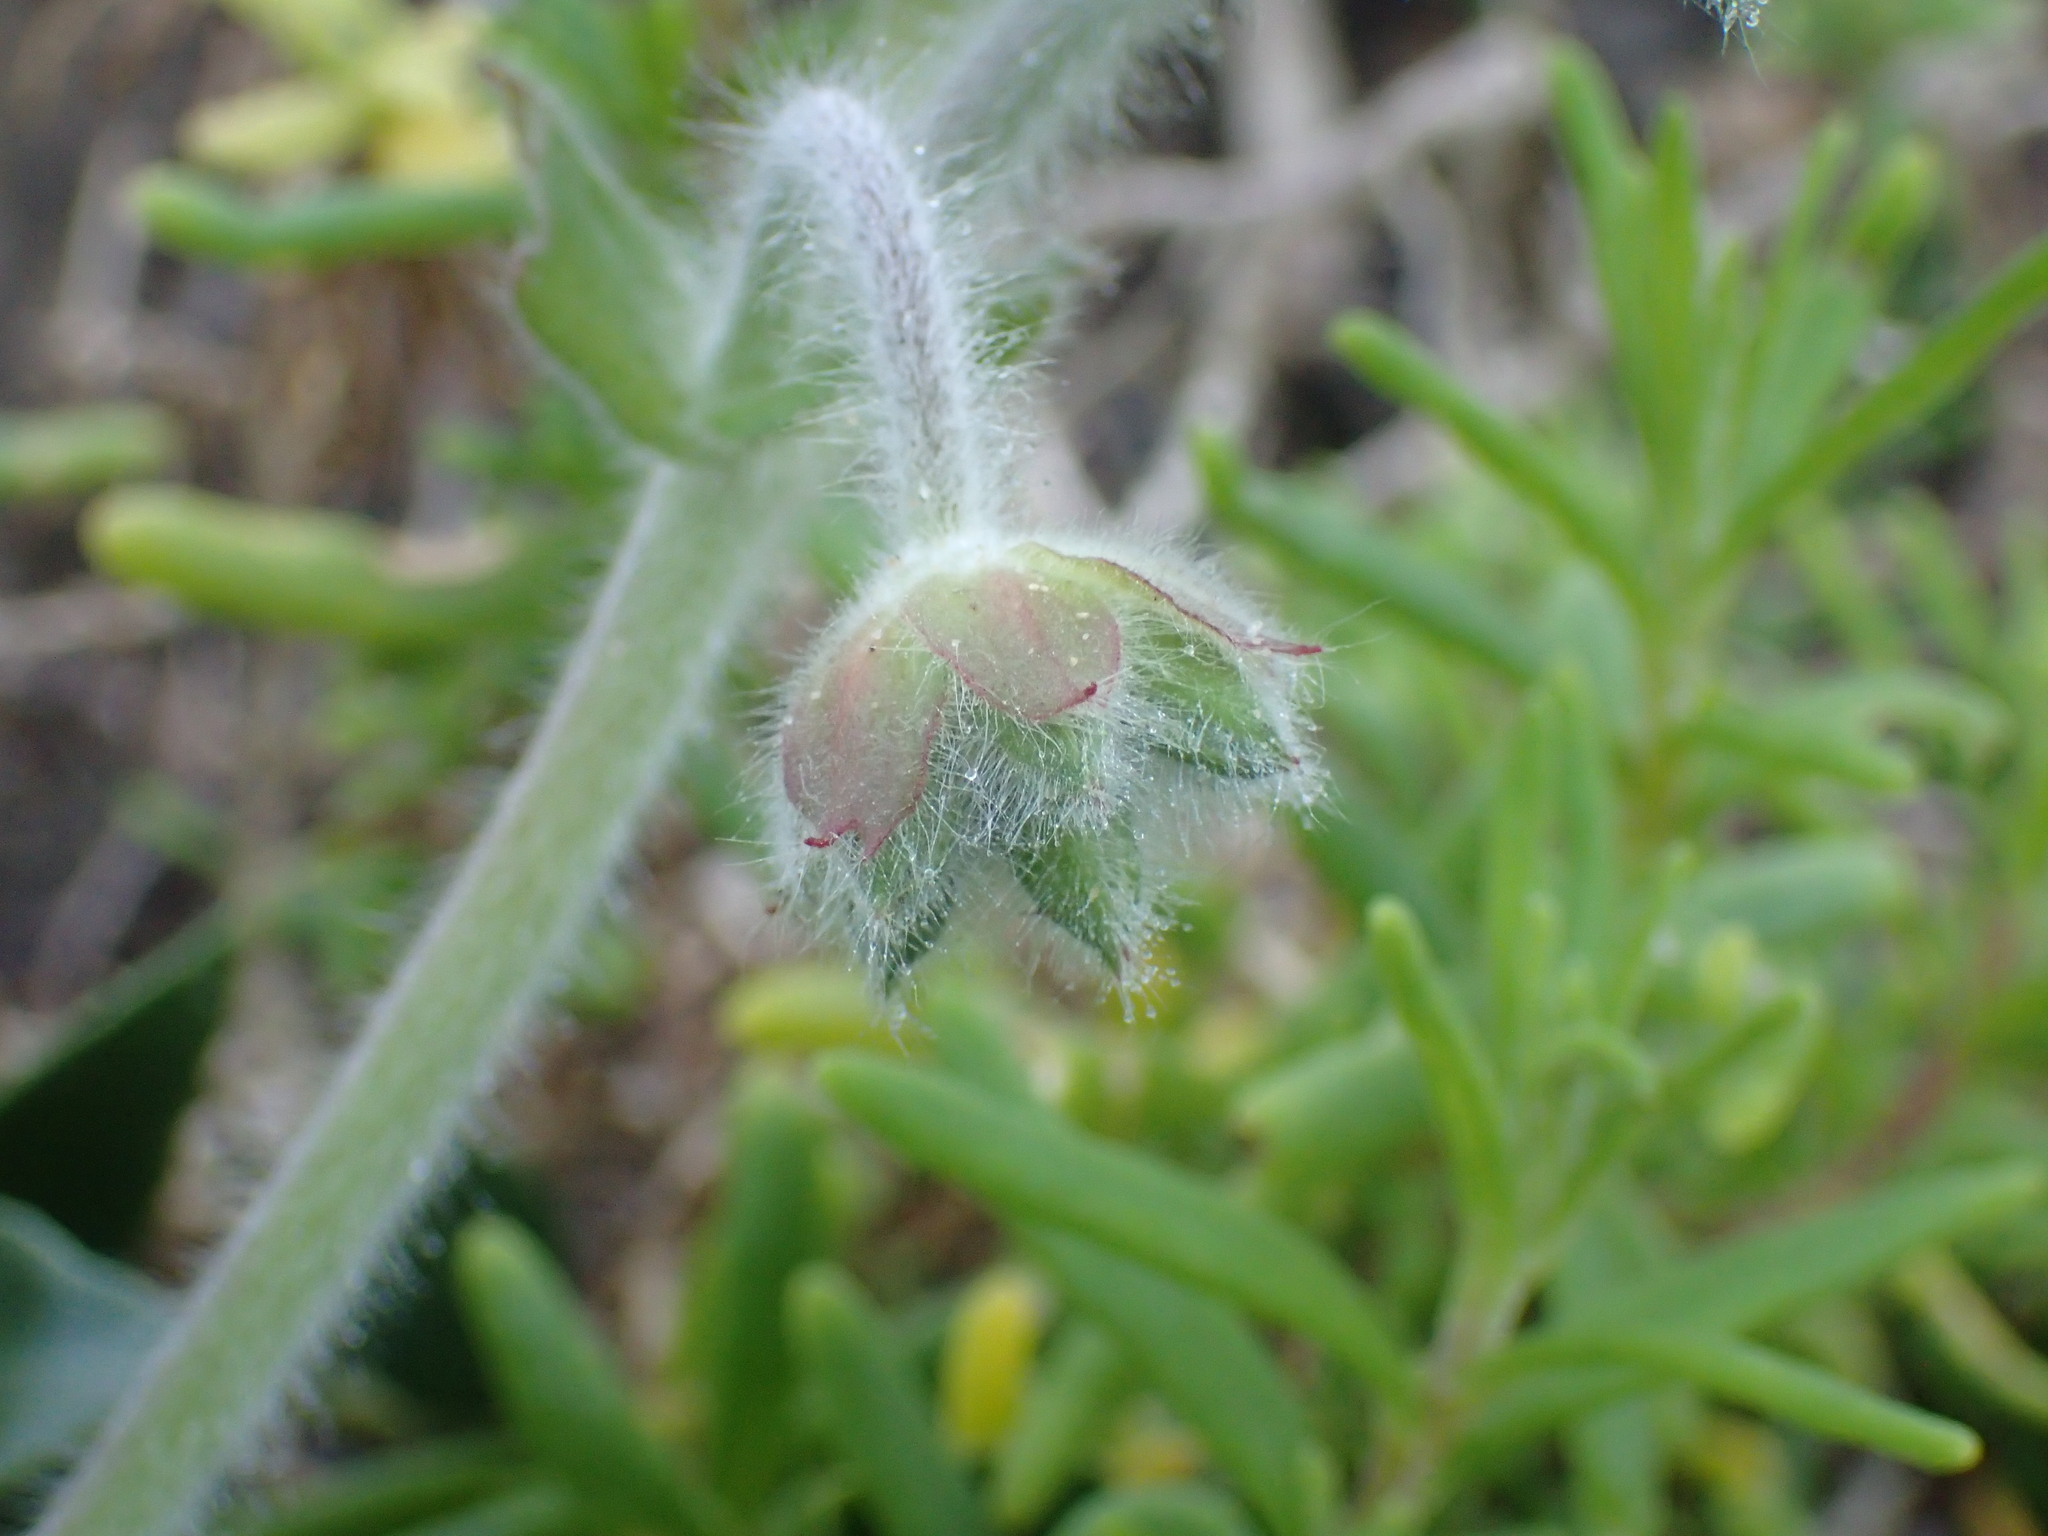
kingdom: Plantae
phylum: Tracheophyta
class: Magnoliopsida
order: Geraniales
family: Geraniaceae
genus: Pelargonium
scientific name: Pelargonium capitatum
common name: Rose scented geranium
